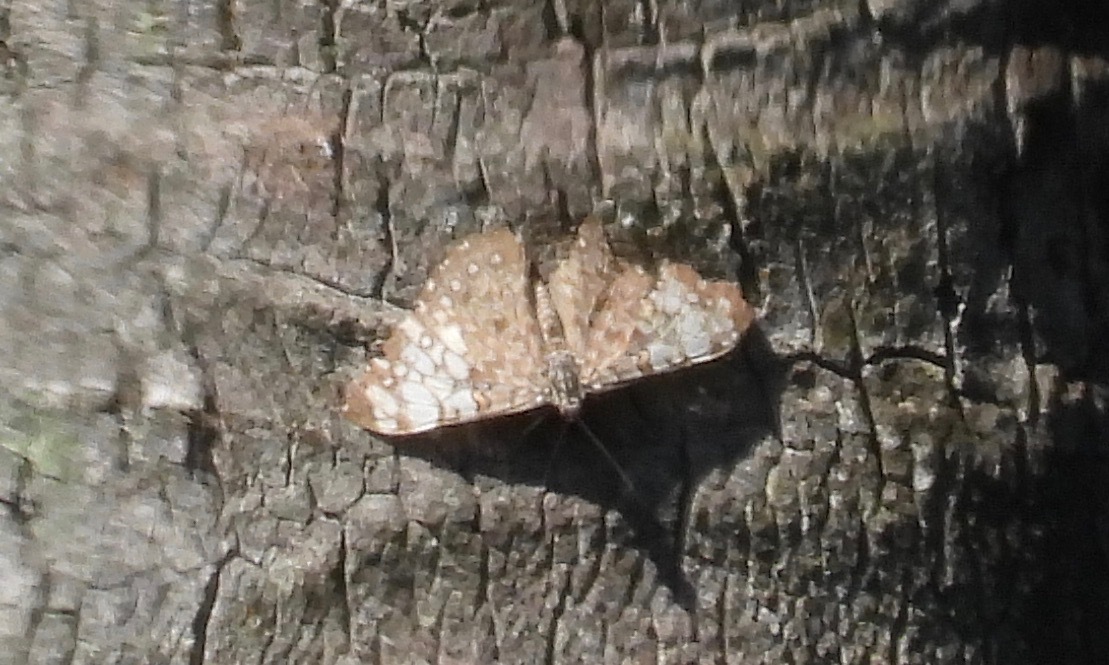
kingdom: Animalia
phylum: Arthropoda
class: Insecta
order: Lepidoptera
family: Nymphalidae
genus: Hamadryas
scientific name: Hamadryas feronia
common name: Variable cracker
